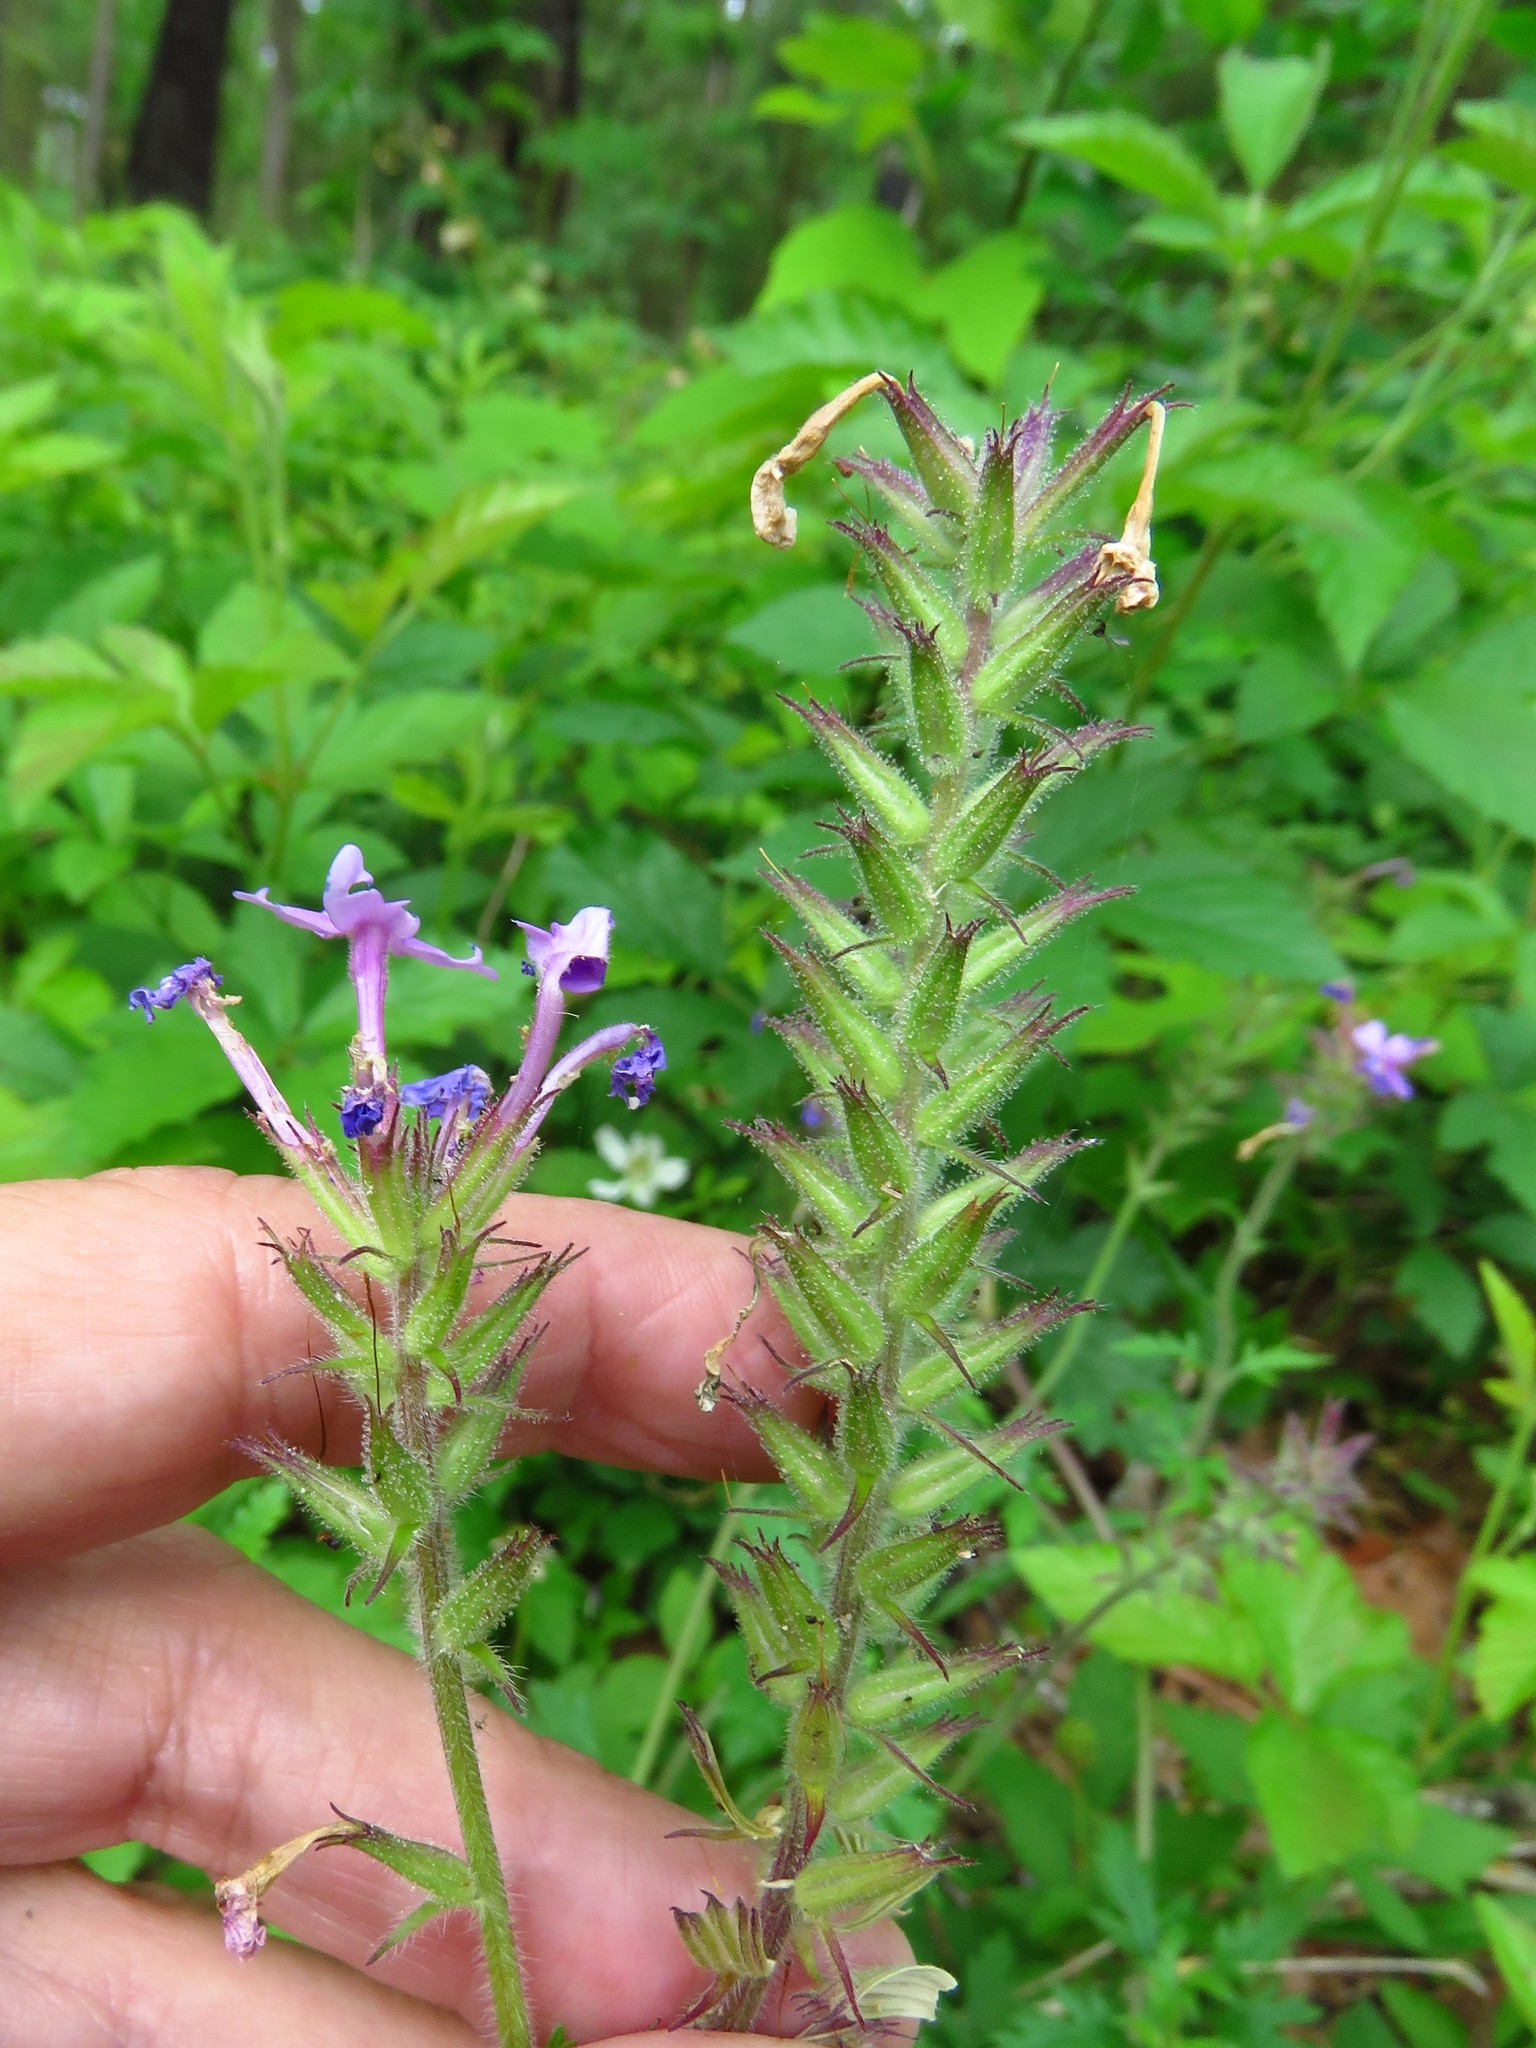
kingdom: Plantae
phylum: Tracheophyta
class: Magnoliopsida
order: Lamiales
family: Verbenaceae
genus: Verbena
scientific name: Verbena canadensis
